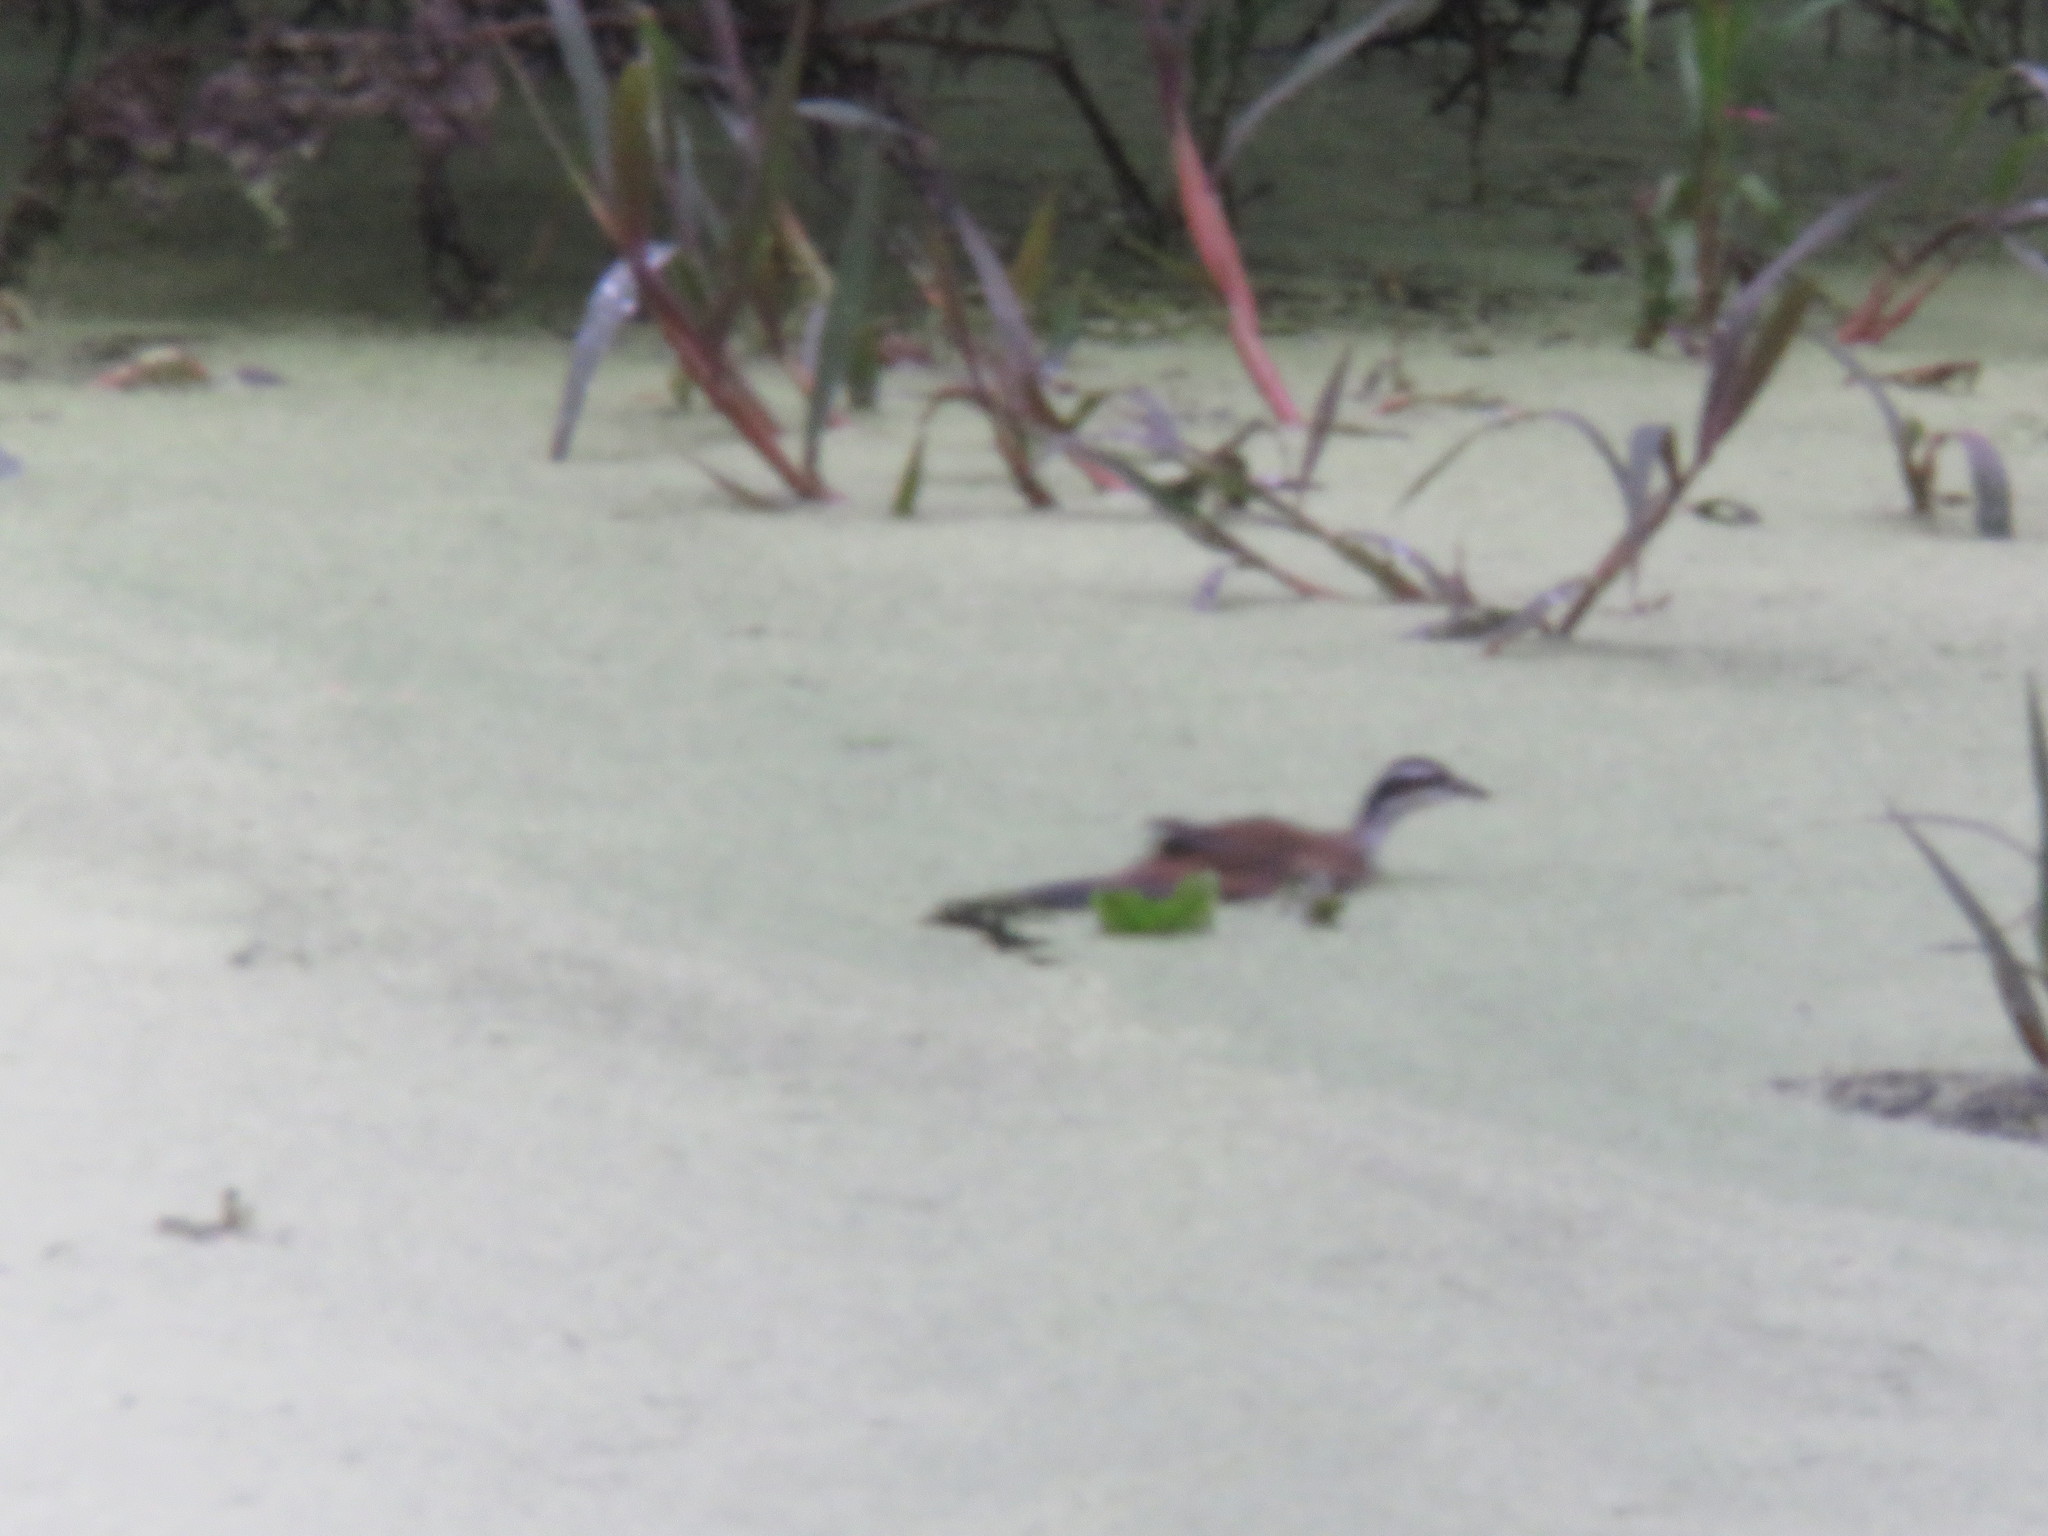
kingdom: Animalia
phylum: Chordata
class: Aves
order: Gruiformes
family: Heliornithidae
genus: Heliornis
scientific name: Heliornis fulica
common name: Sungrebe
